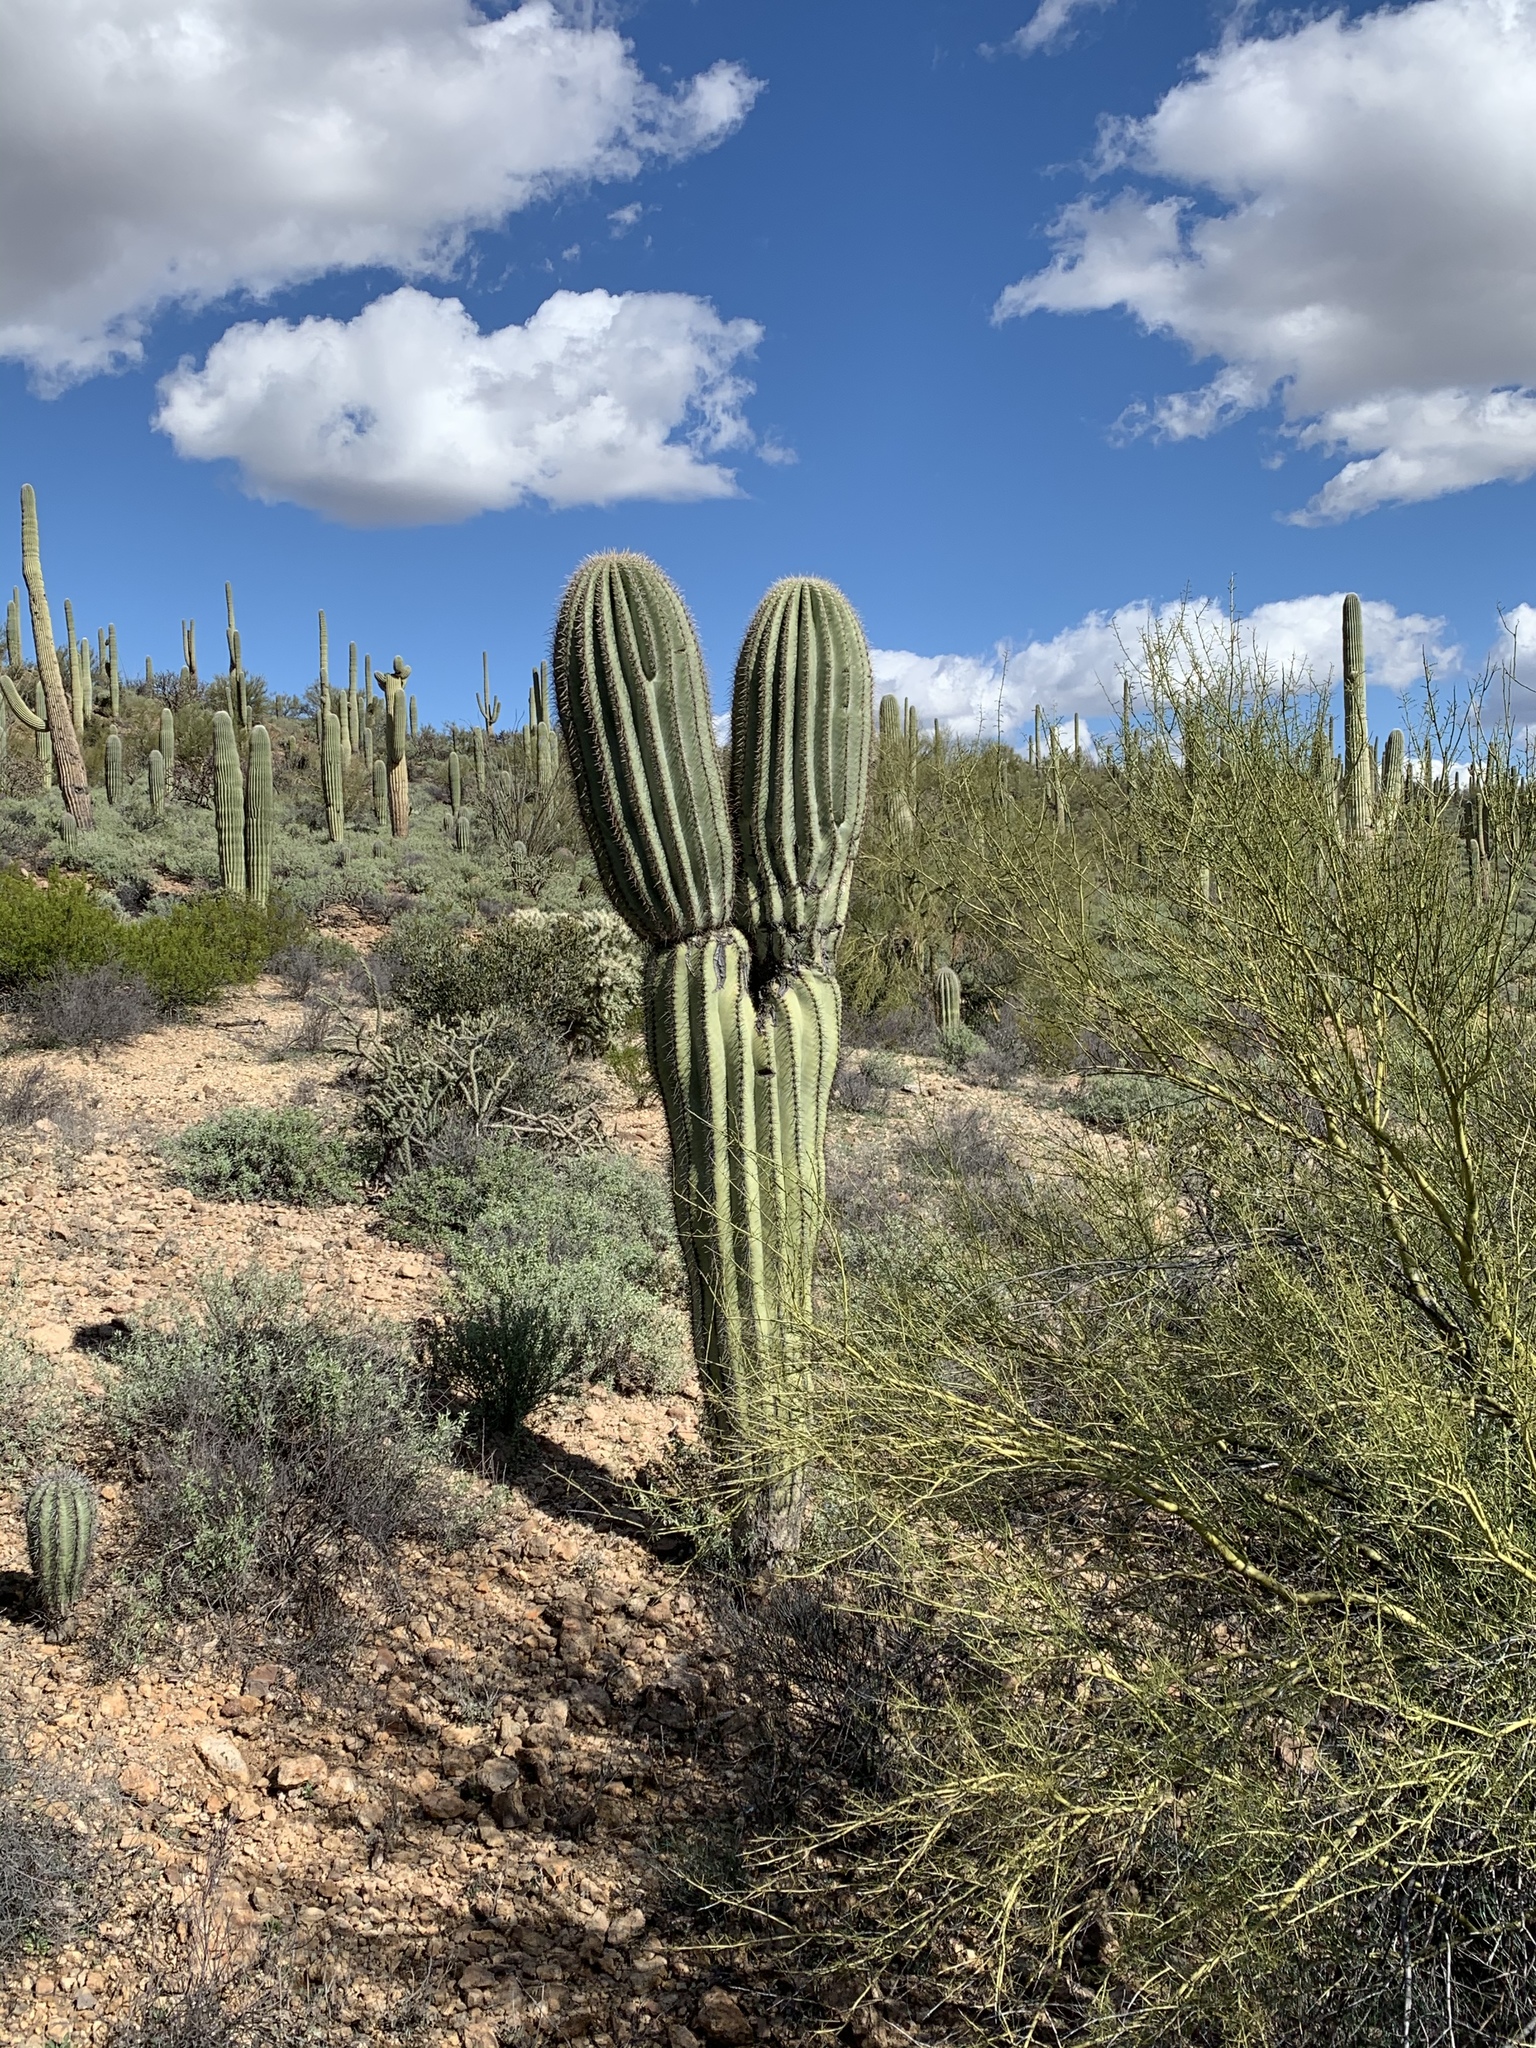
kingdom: Plantae
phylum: Tracheophyta
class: Magnoliopsida
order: Caryophyllales
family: Cactaceae
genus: Carnegiea
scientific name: Carnegiea gigantea
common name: Saguaro
